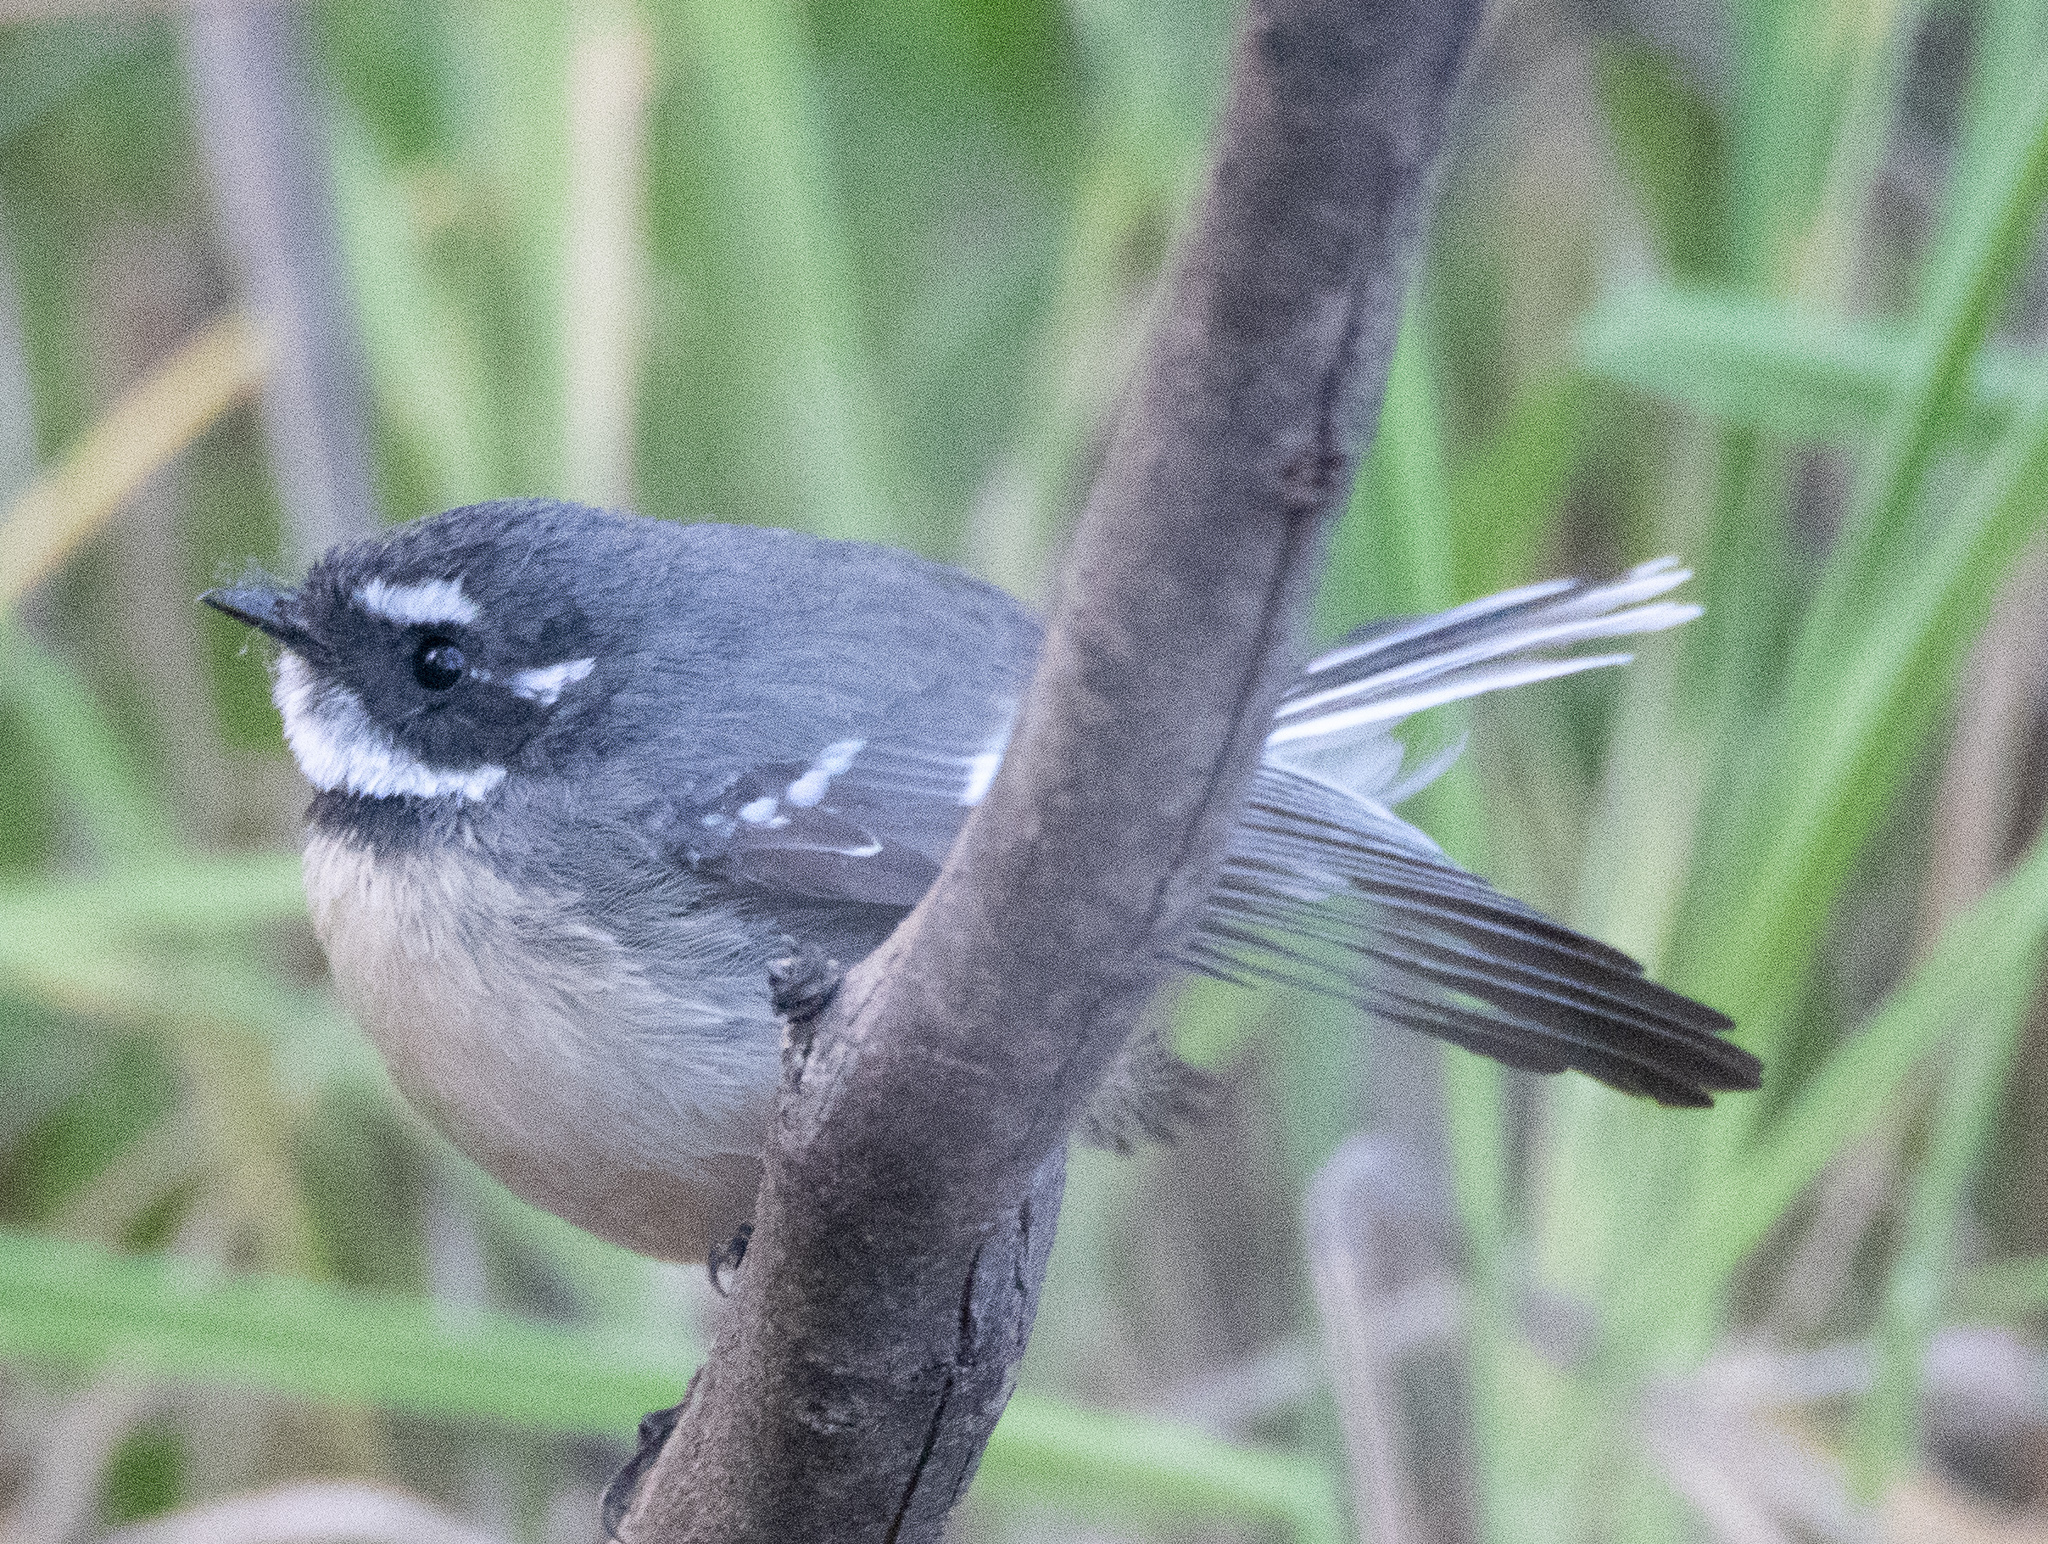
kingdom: Animalia
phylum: Chordata
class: Aves
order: Passeriformes
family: Rhipiduridae
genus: Rhipidura
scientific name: Rhipidura albiscapa
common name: Grey fantail
